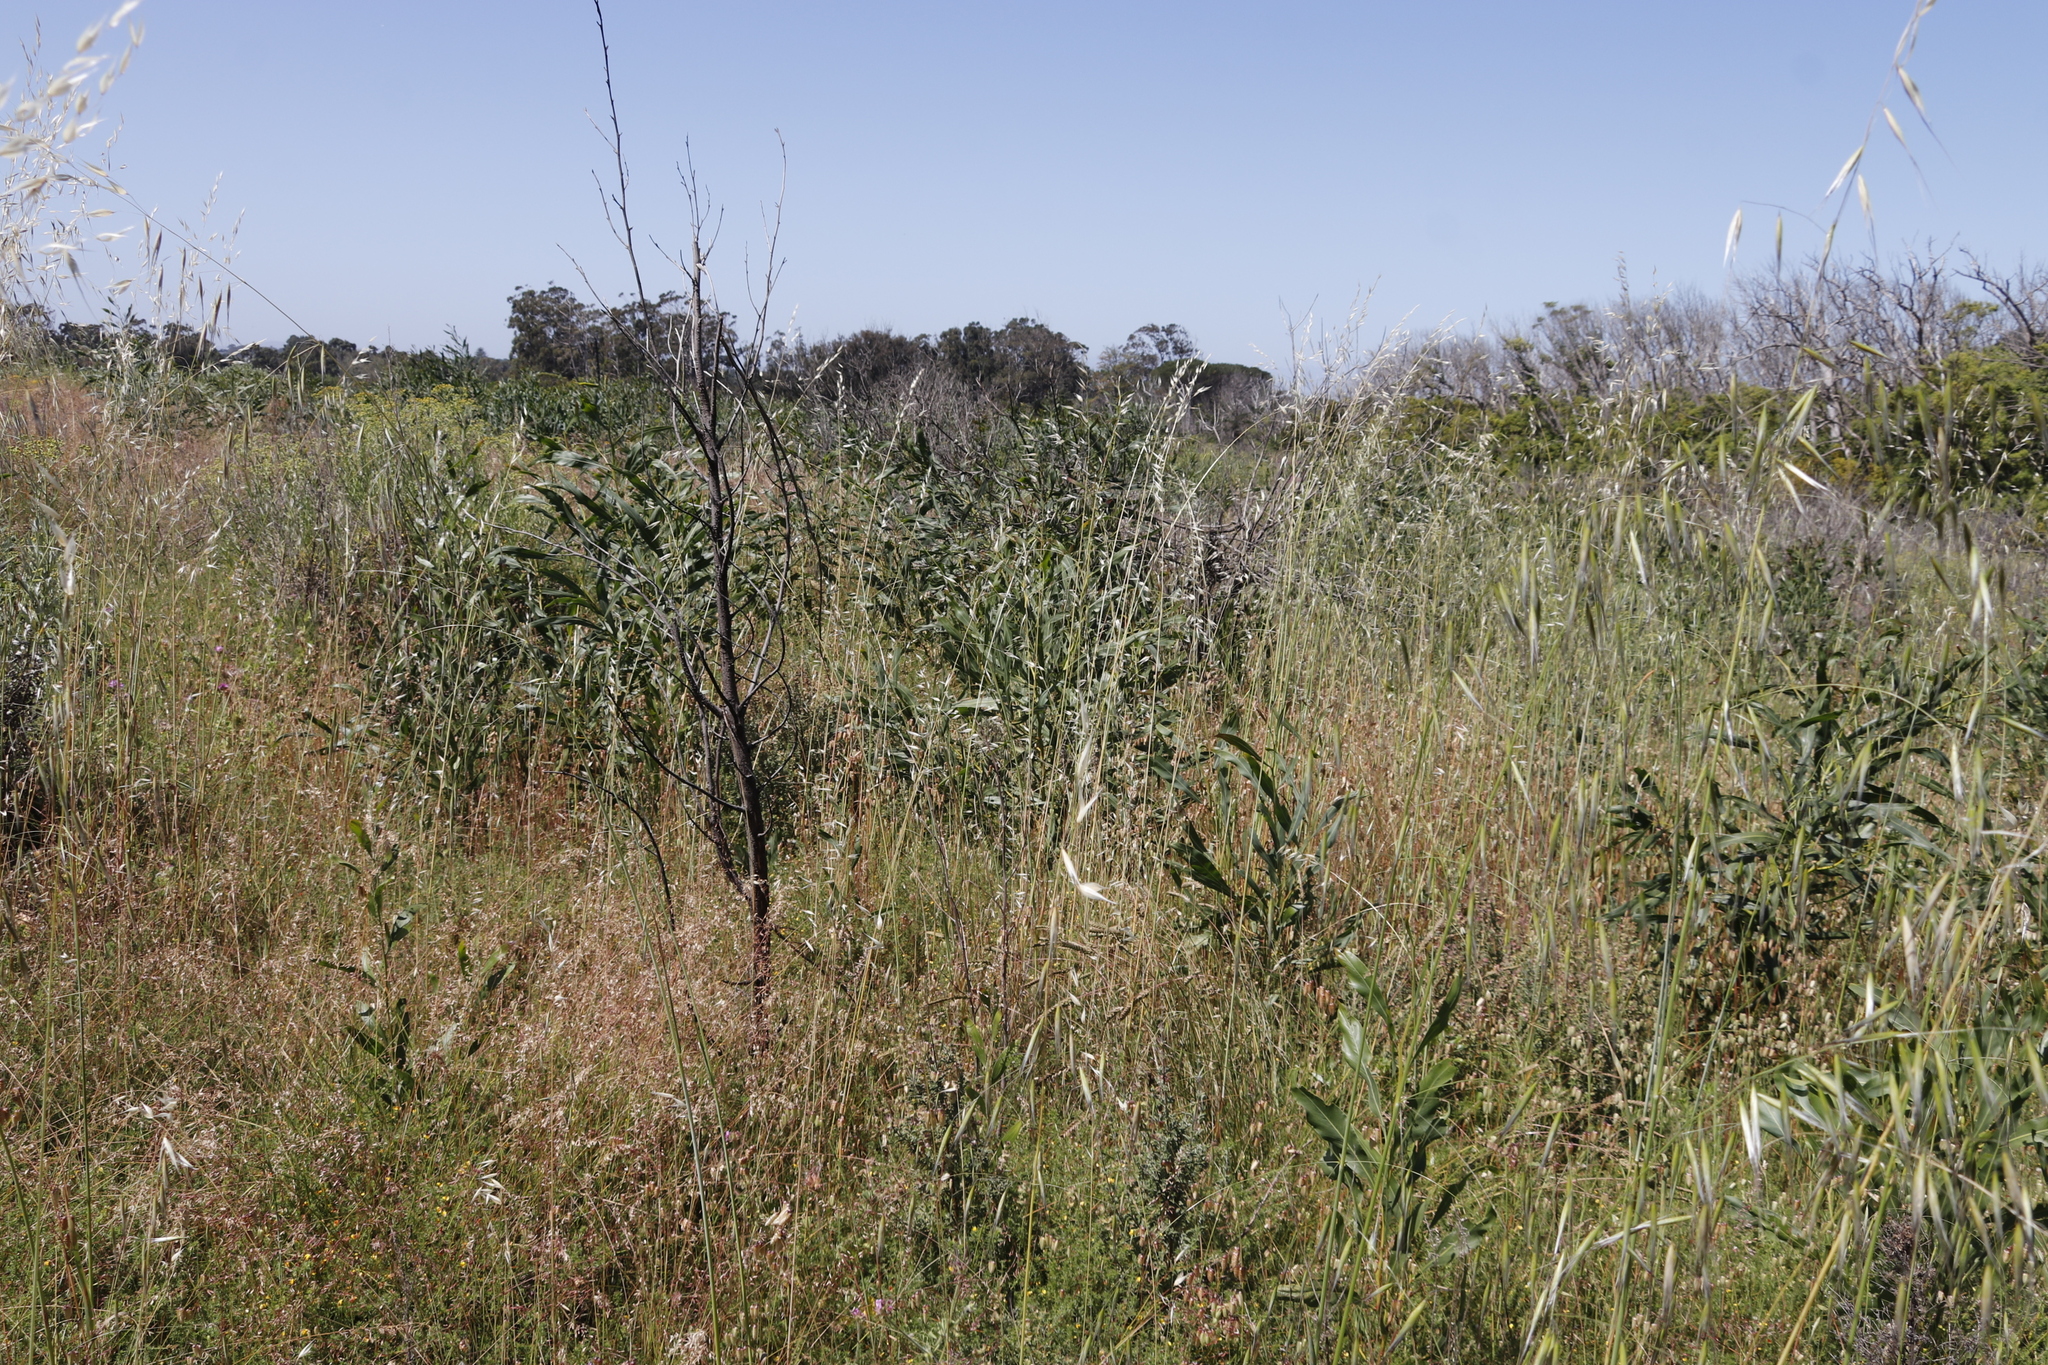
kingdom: Plantae
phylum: Tracheophyta
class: Magnoliopsida
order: Fabales
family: Fabaceae
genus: Acacia
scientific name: Acacia saligna
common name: Orange wattle
